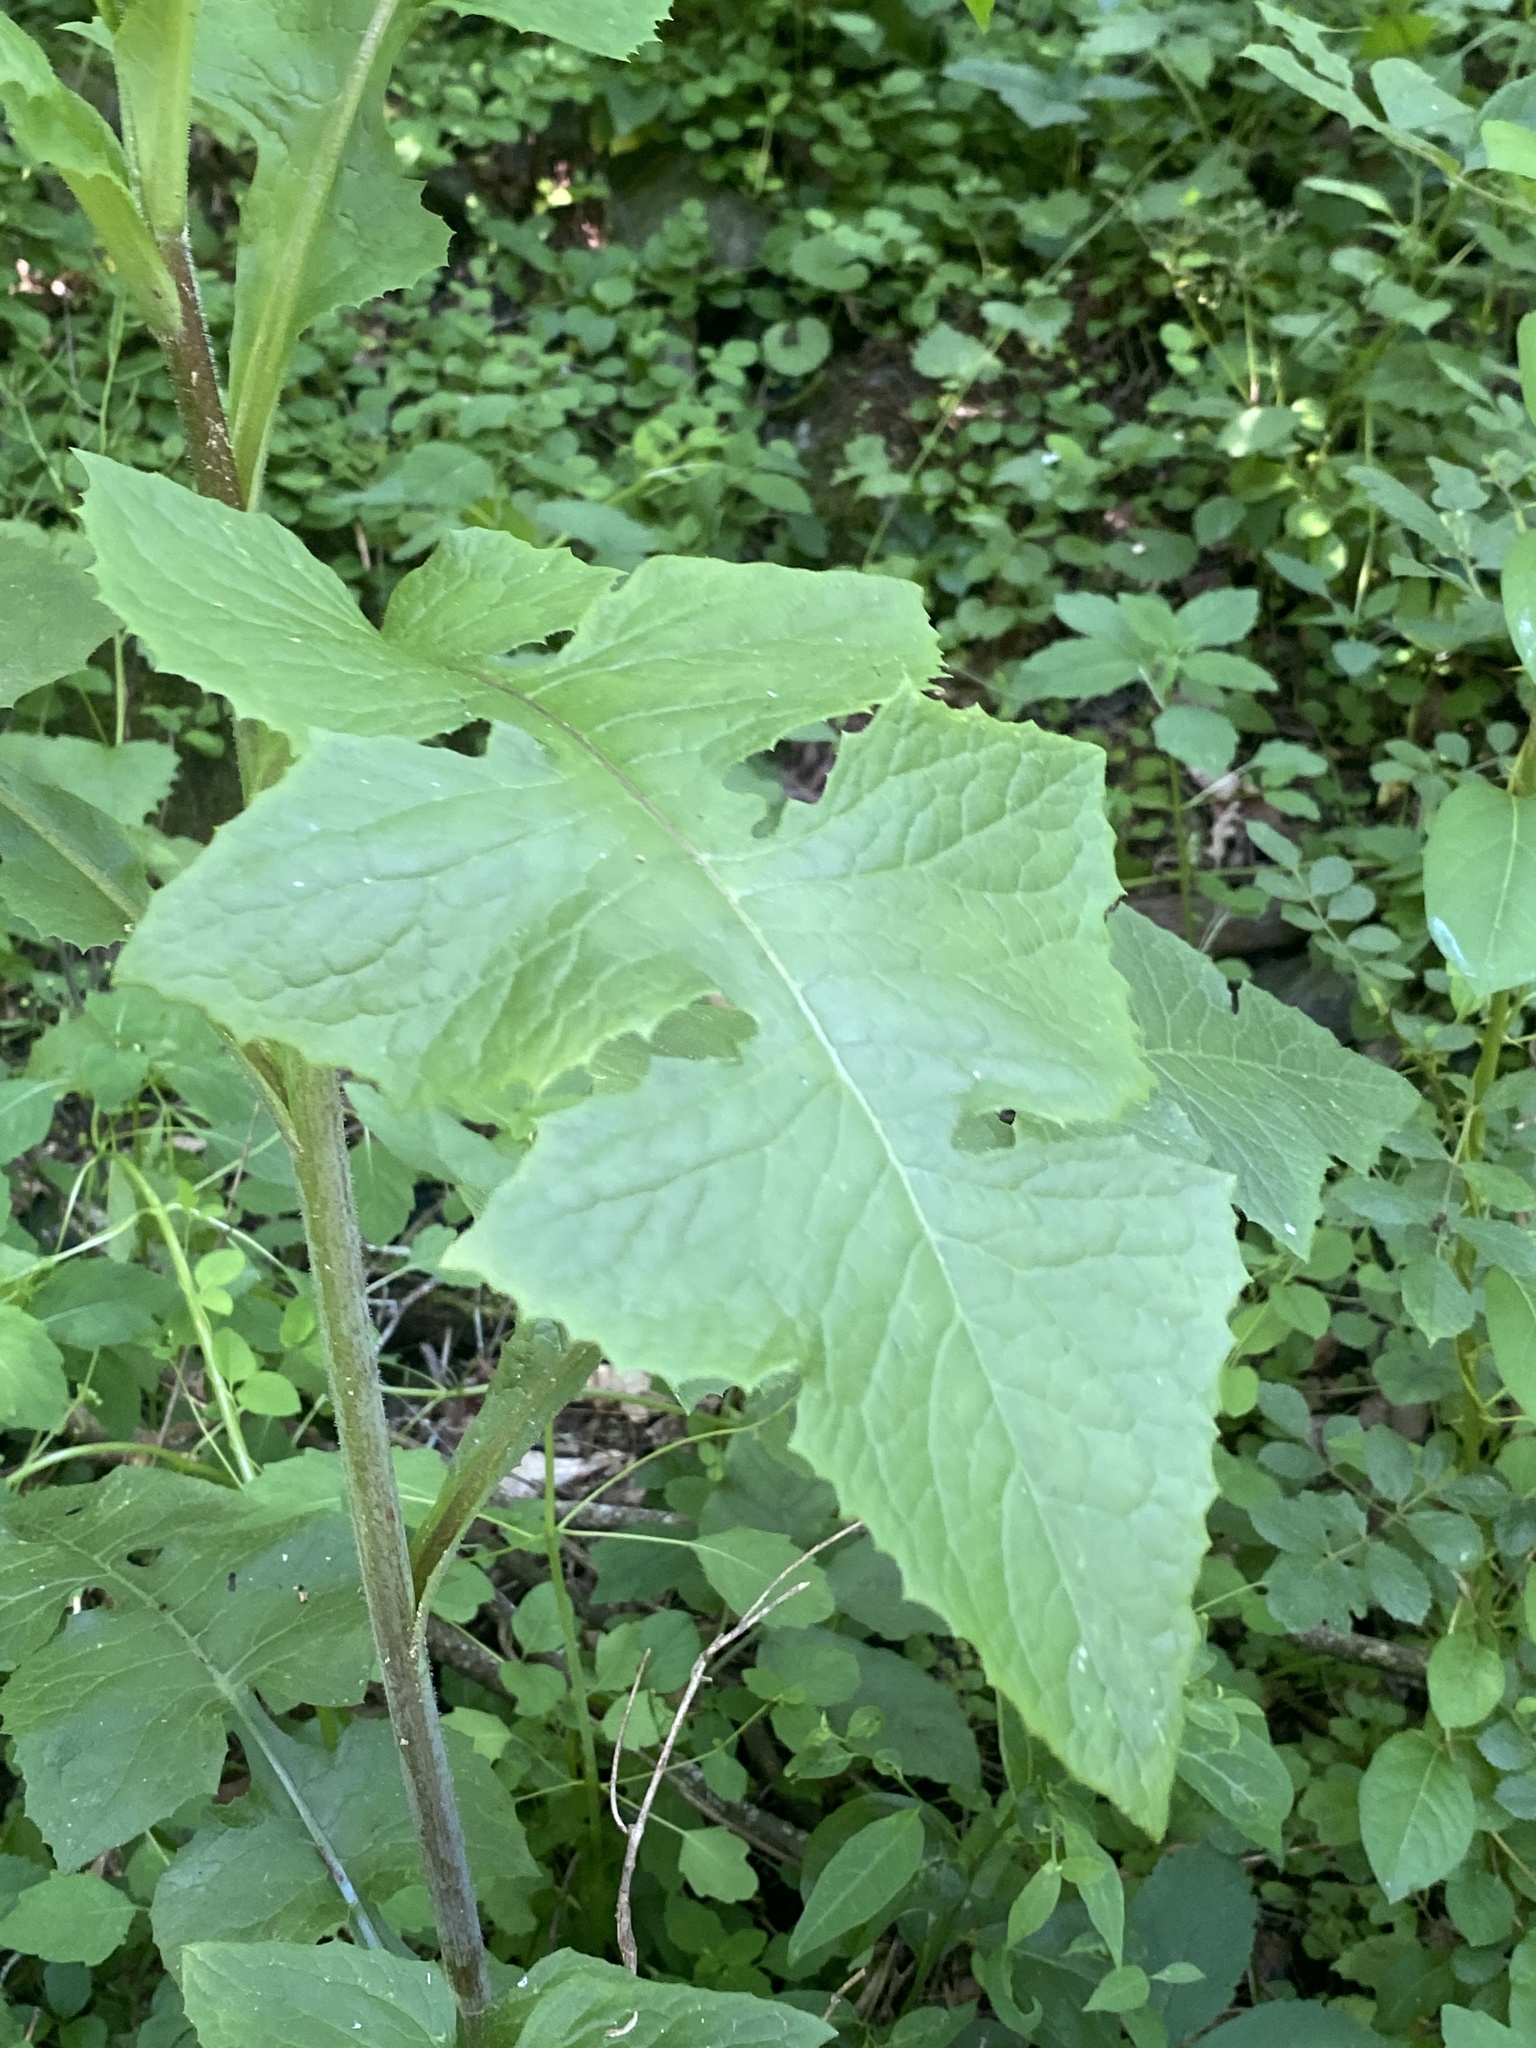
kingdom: Plantae
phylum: Tracheophyta
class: Magnoliopsida
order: Asterales
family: Asteraceae
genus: Lactuca
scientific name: Lactuca biennis
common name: Blue wood lettuce
